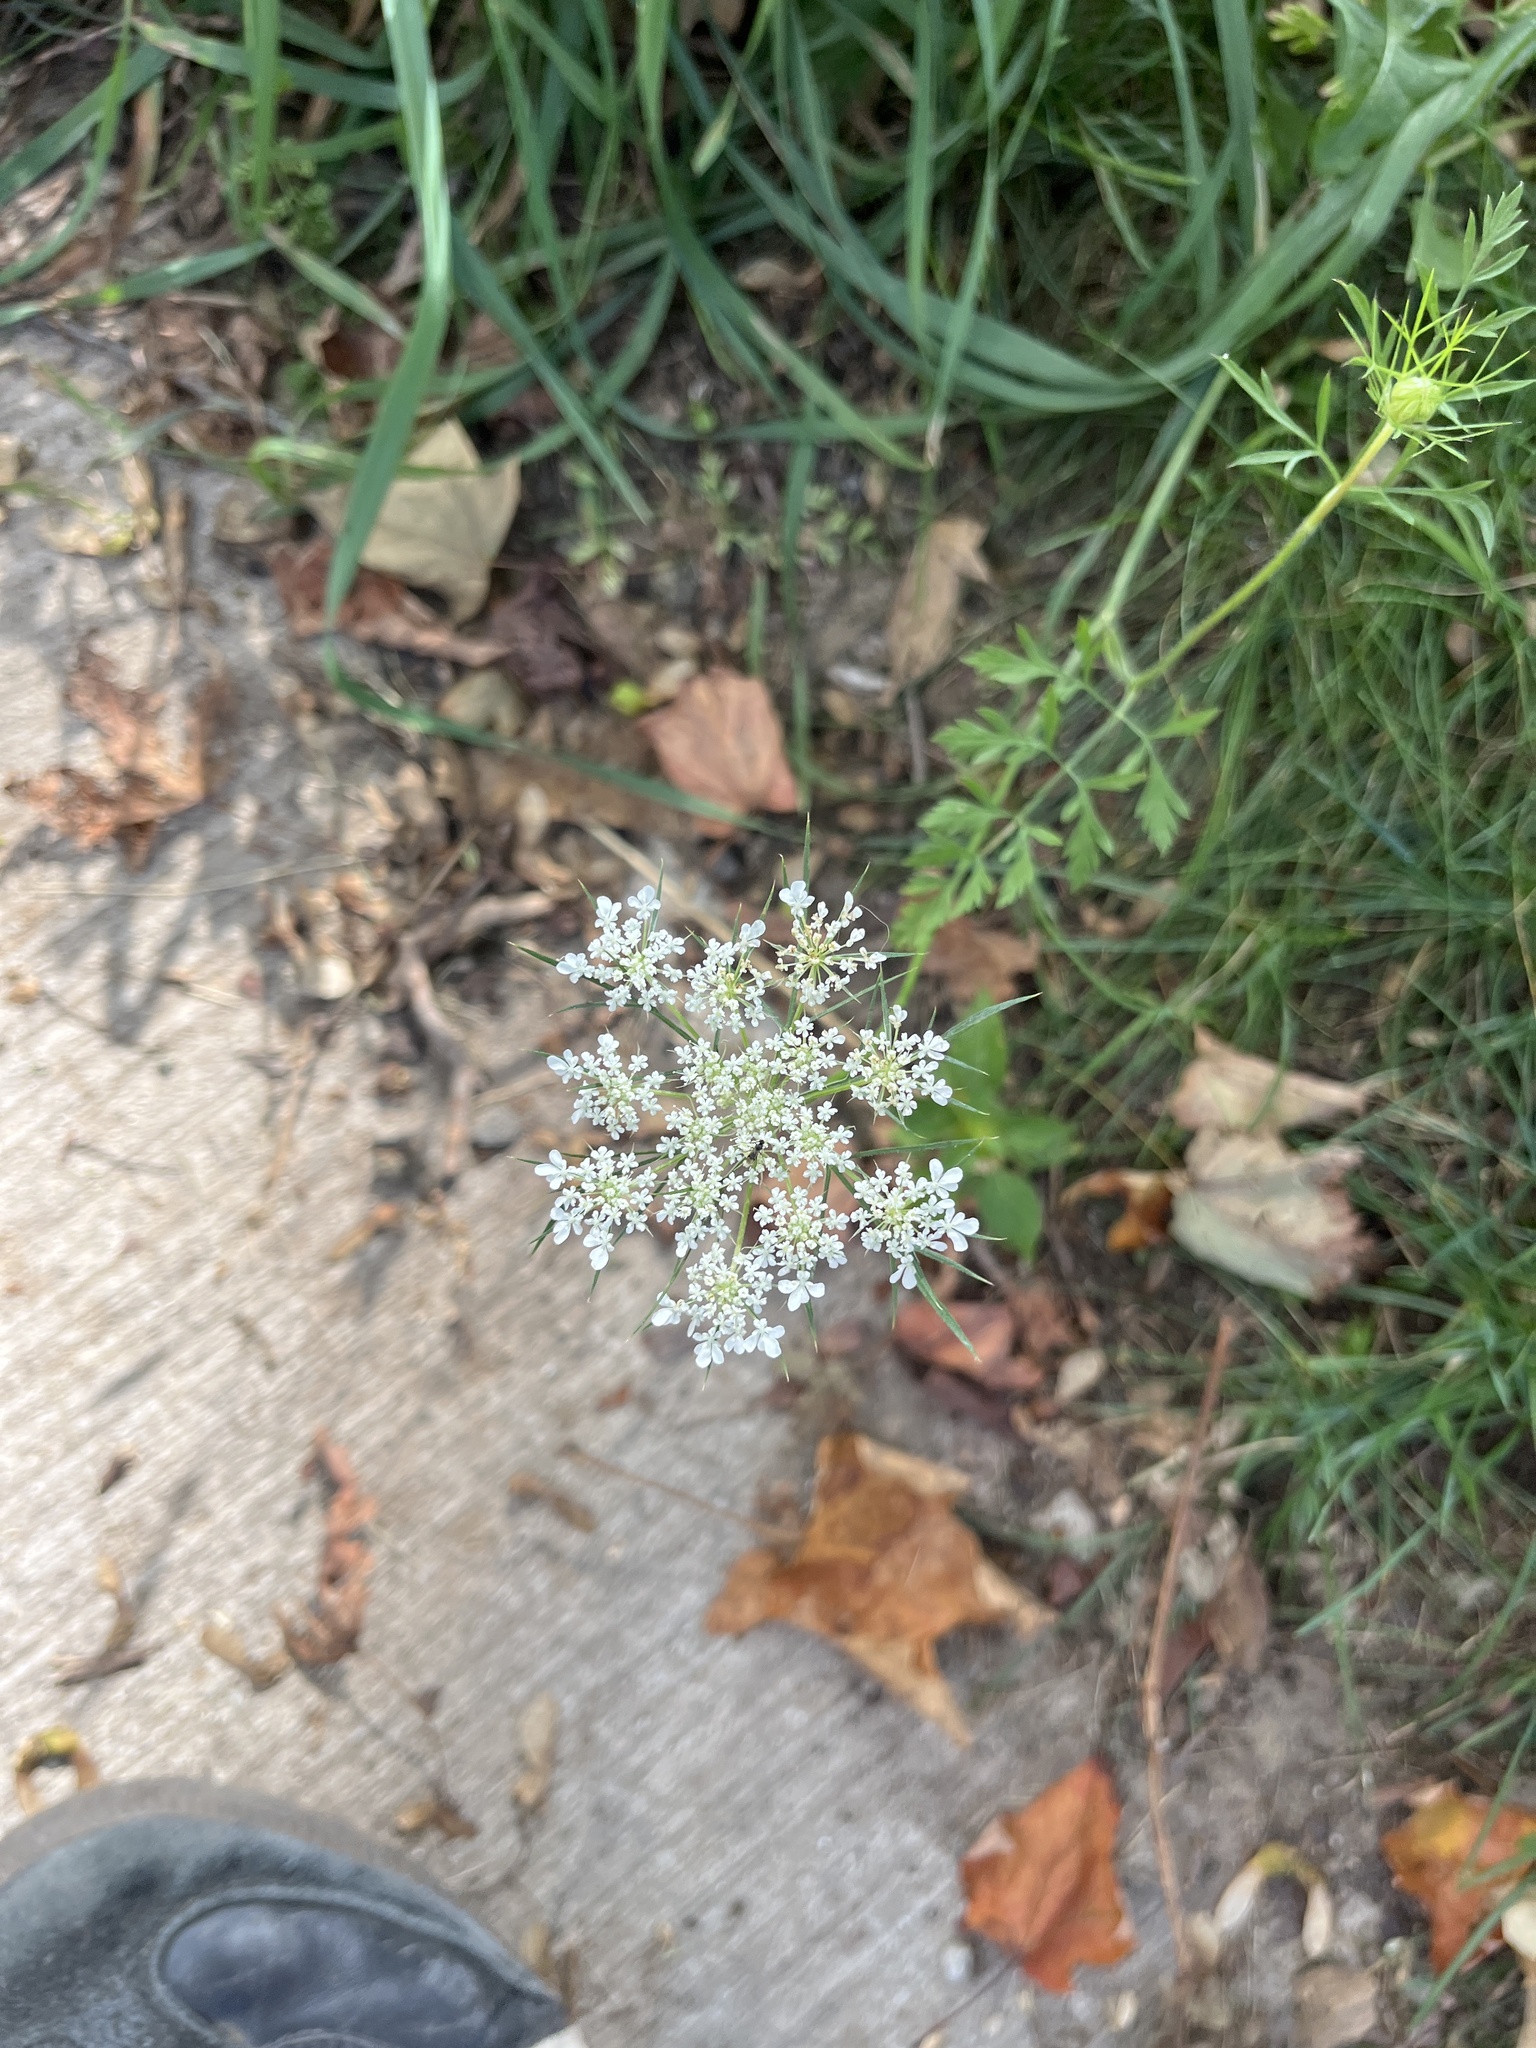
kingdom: Plantae
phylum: Tracheophyta
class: Magnoliopsida
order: Apiales
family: Apiaceae
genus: Daucus
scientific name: Daucus carota
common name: Wild carrot
